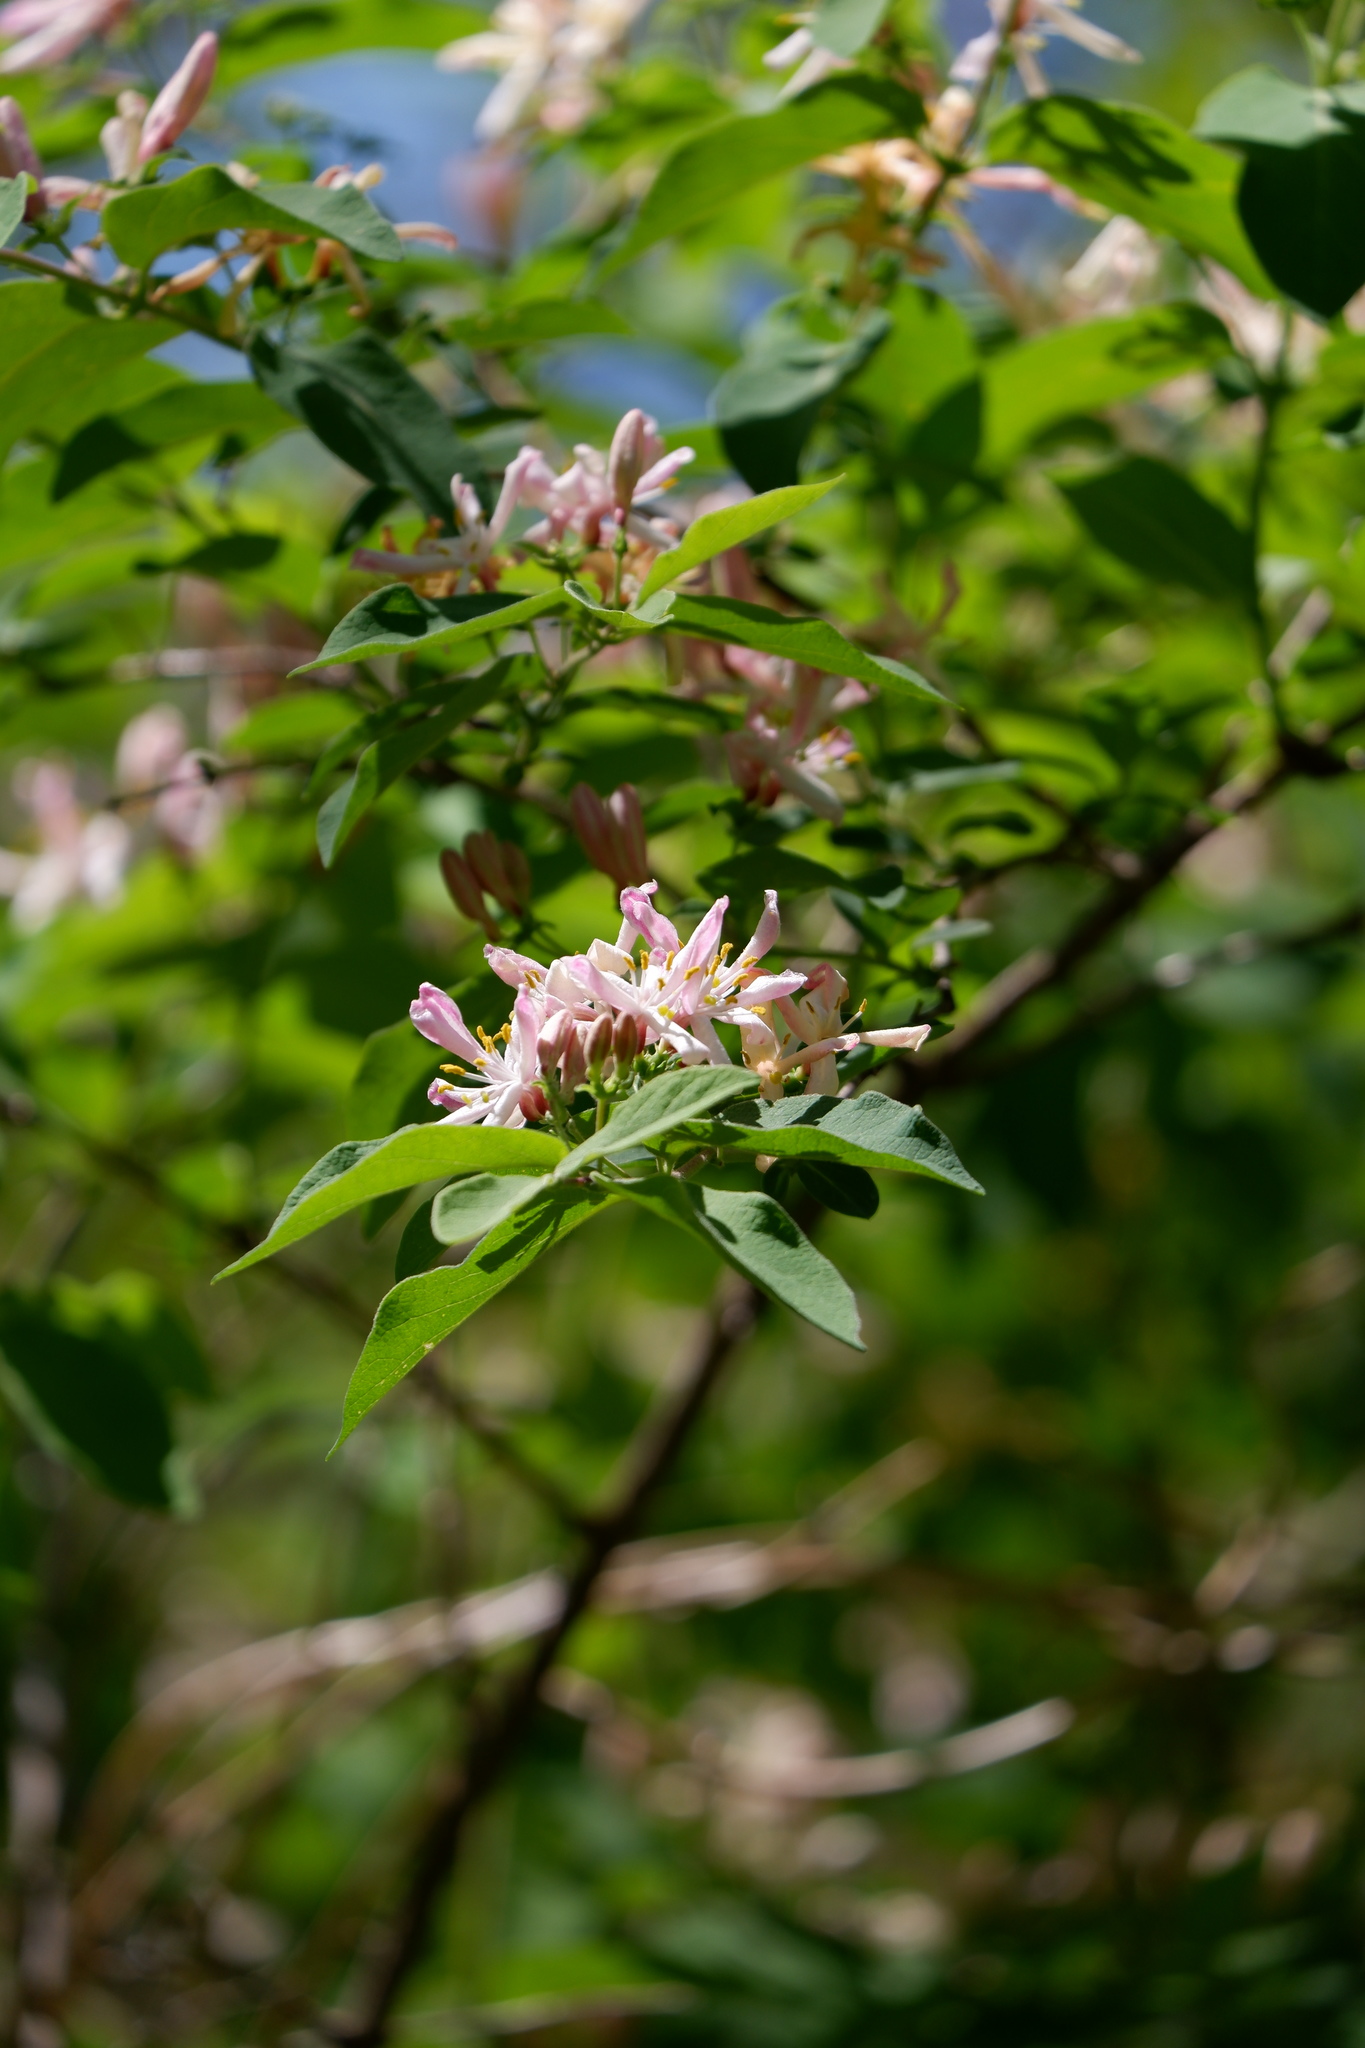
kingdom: Plantae
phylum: Tracheophyta
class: Magnoliopsida
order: Dipsacales
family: Caprifoliaceae
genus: Lonicera
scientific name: Lonicera tatarica
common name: Tatarian honeysuckle
